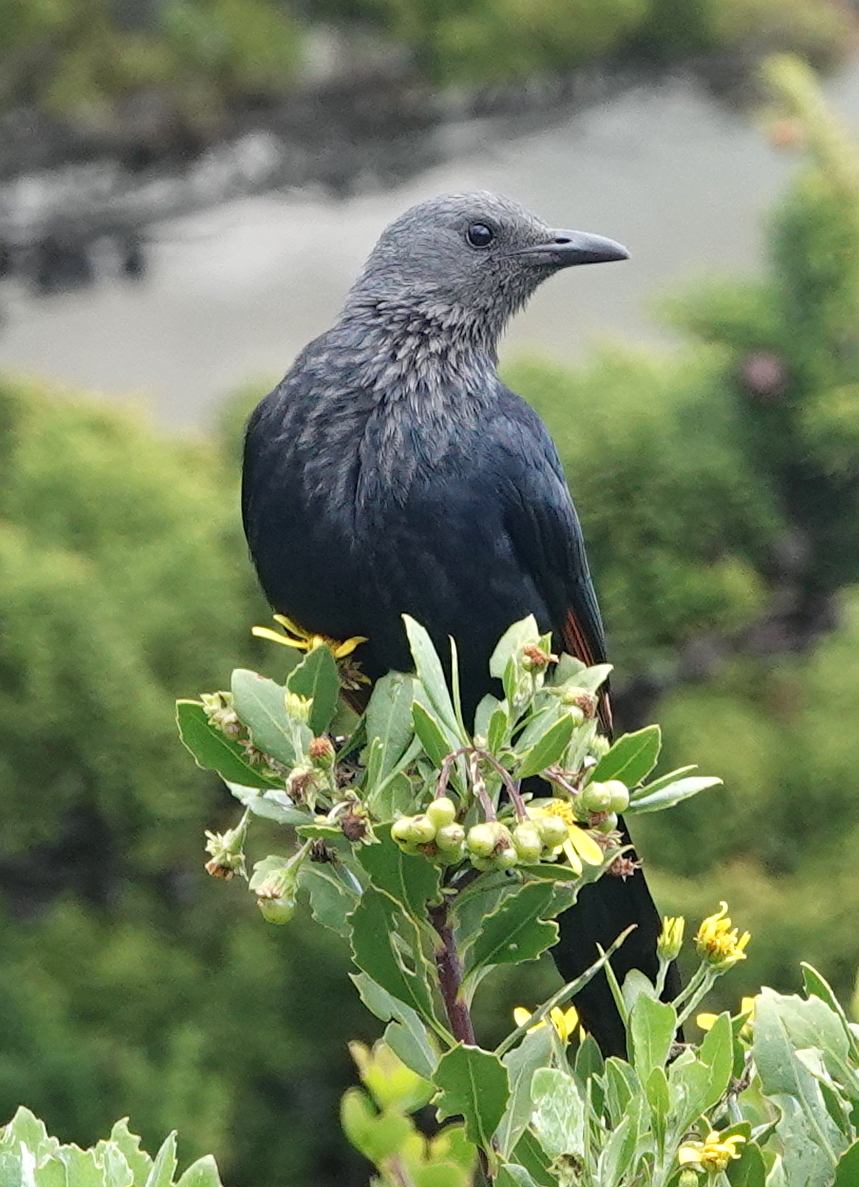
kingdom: Animalia
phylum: Chordata
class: Aves
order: Passeriformes
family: Sturnidae
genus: Onychognathus
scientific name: Onychognathus morio
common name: Red-winged starling
